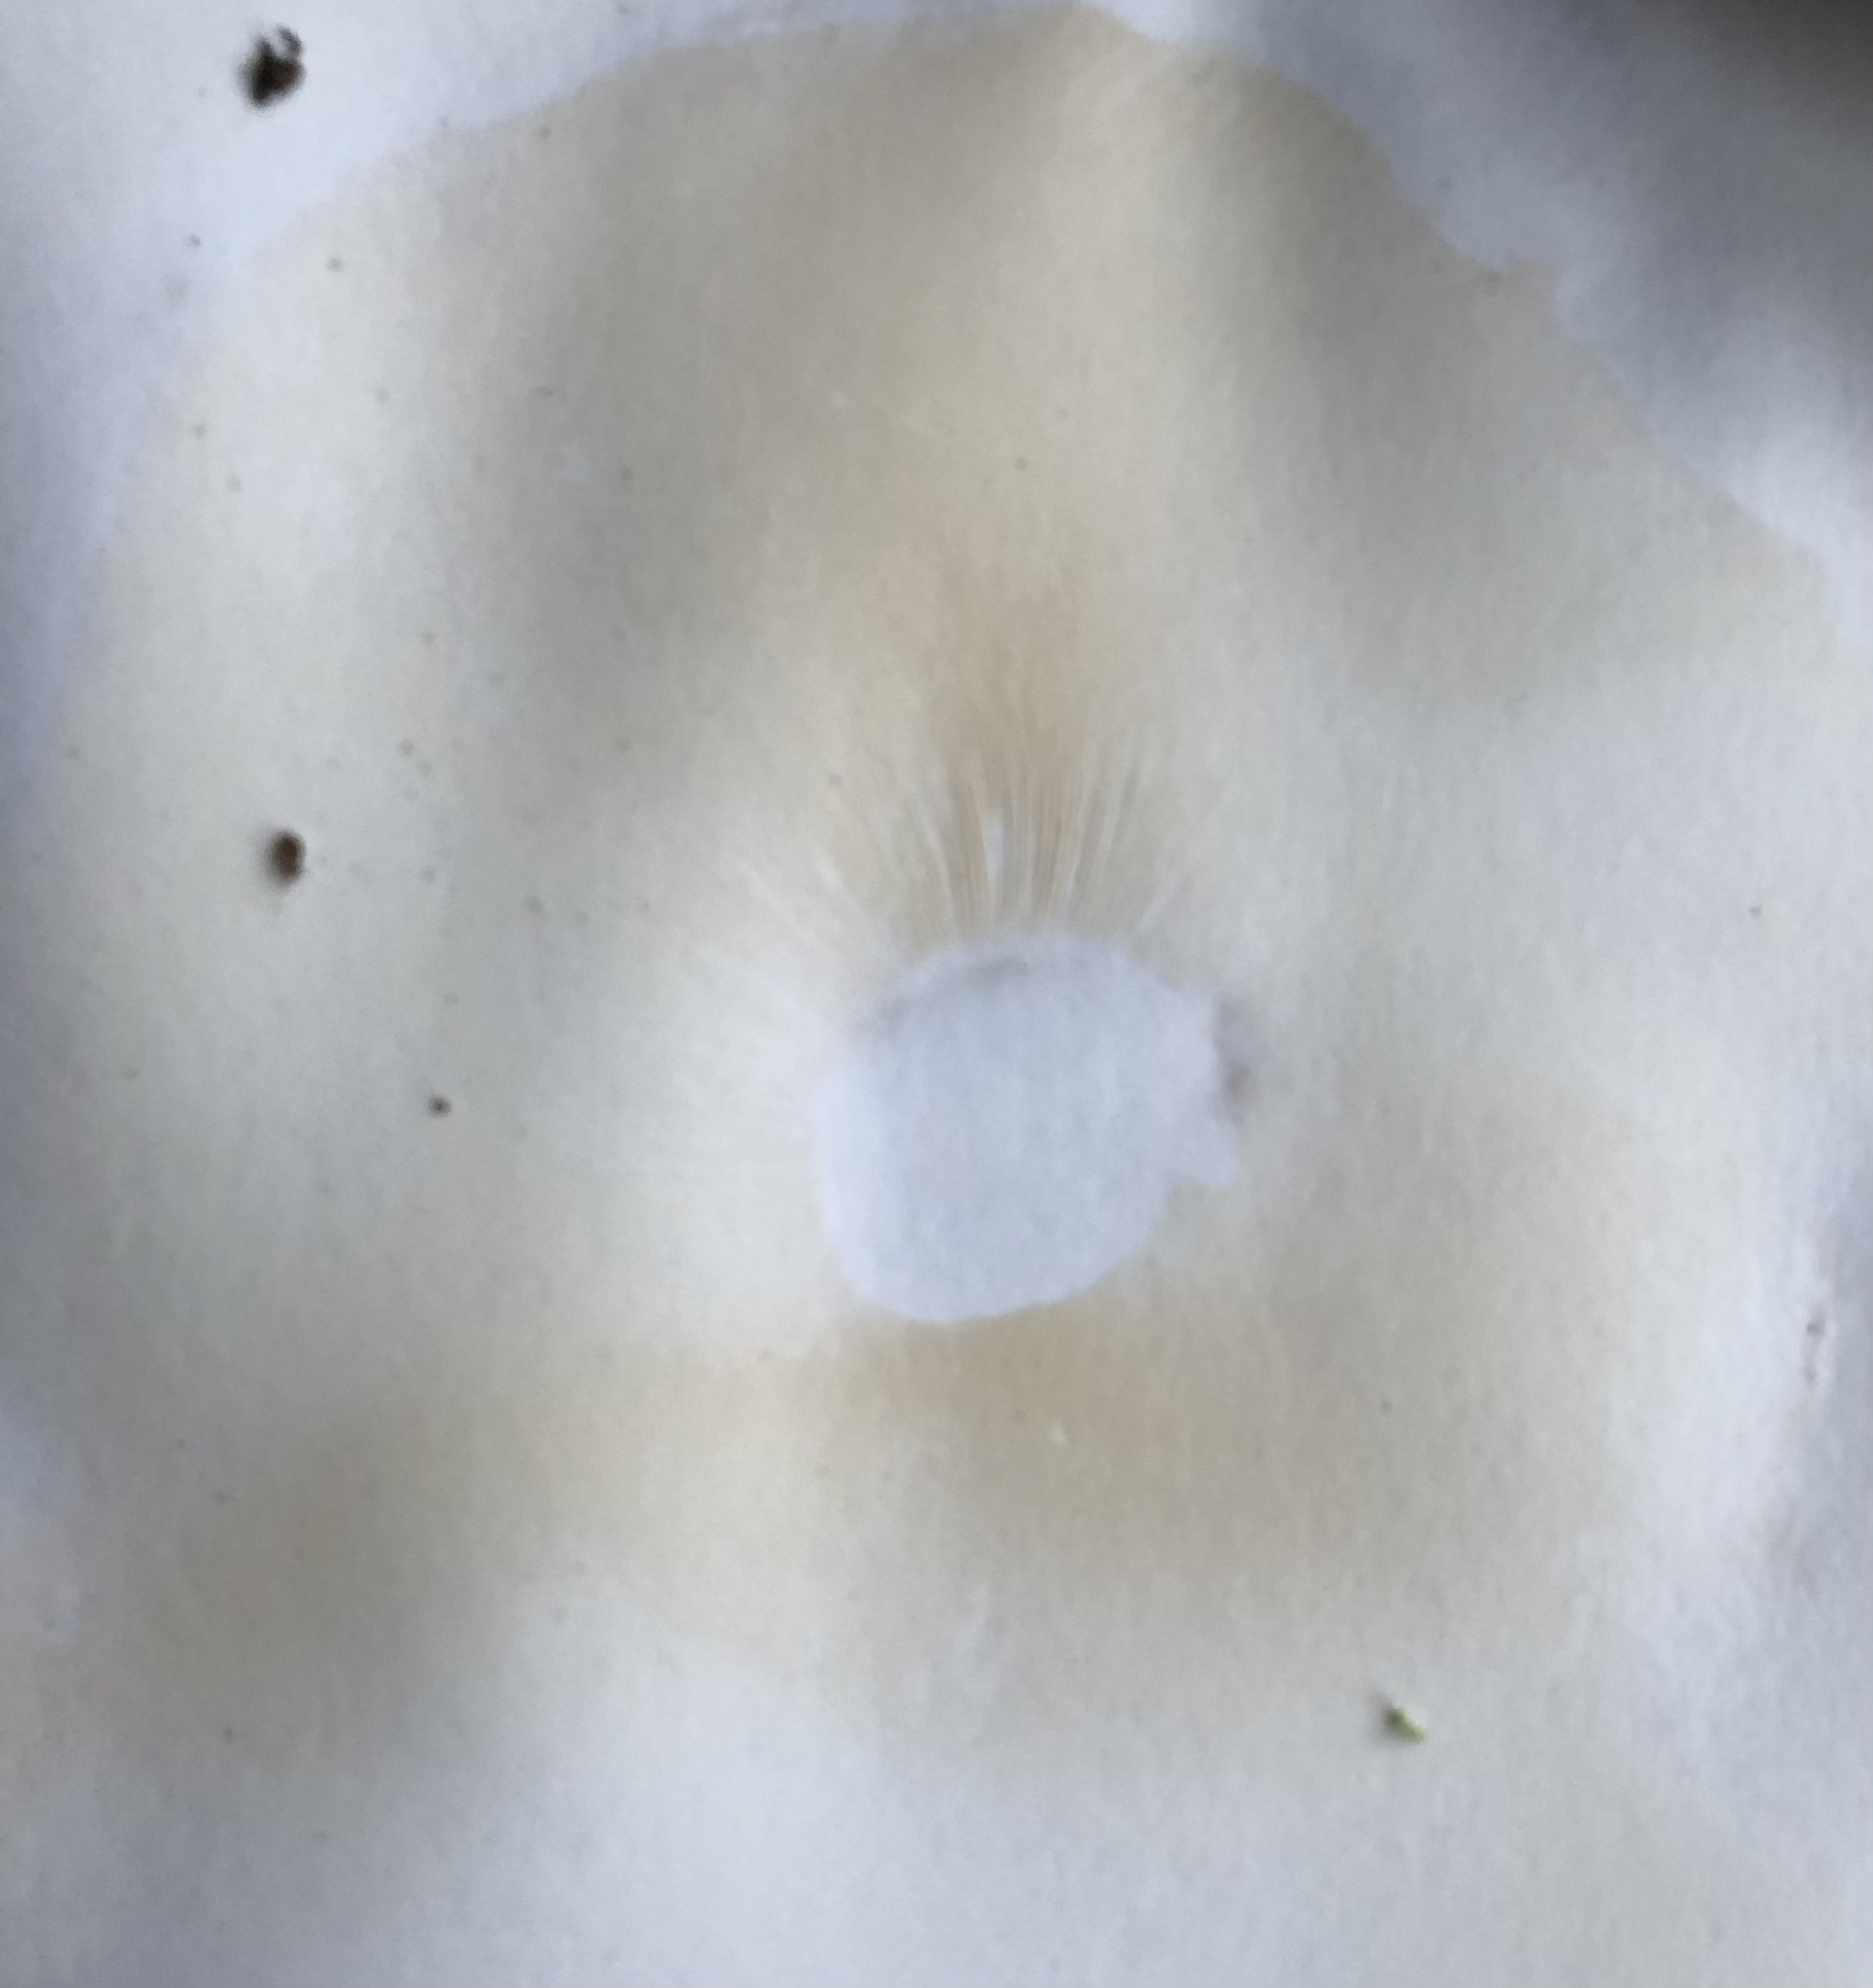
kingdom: Fungi
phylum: Basidiomycota
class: Agaricomycetes
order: Agaricales
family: Tricholomataceae
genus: Collybia
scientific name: Collybia
